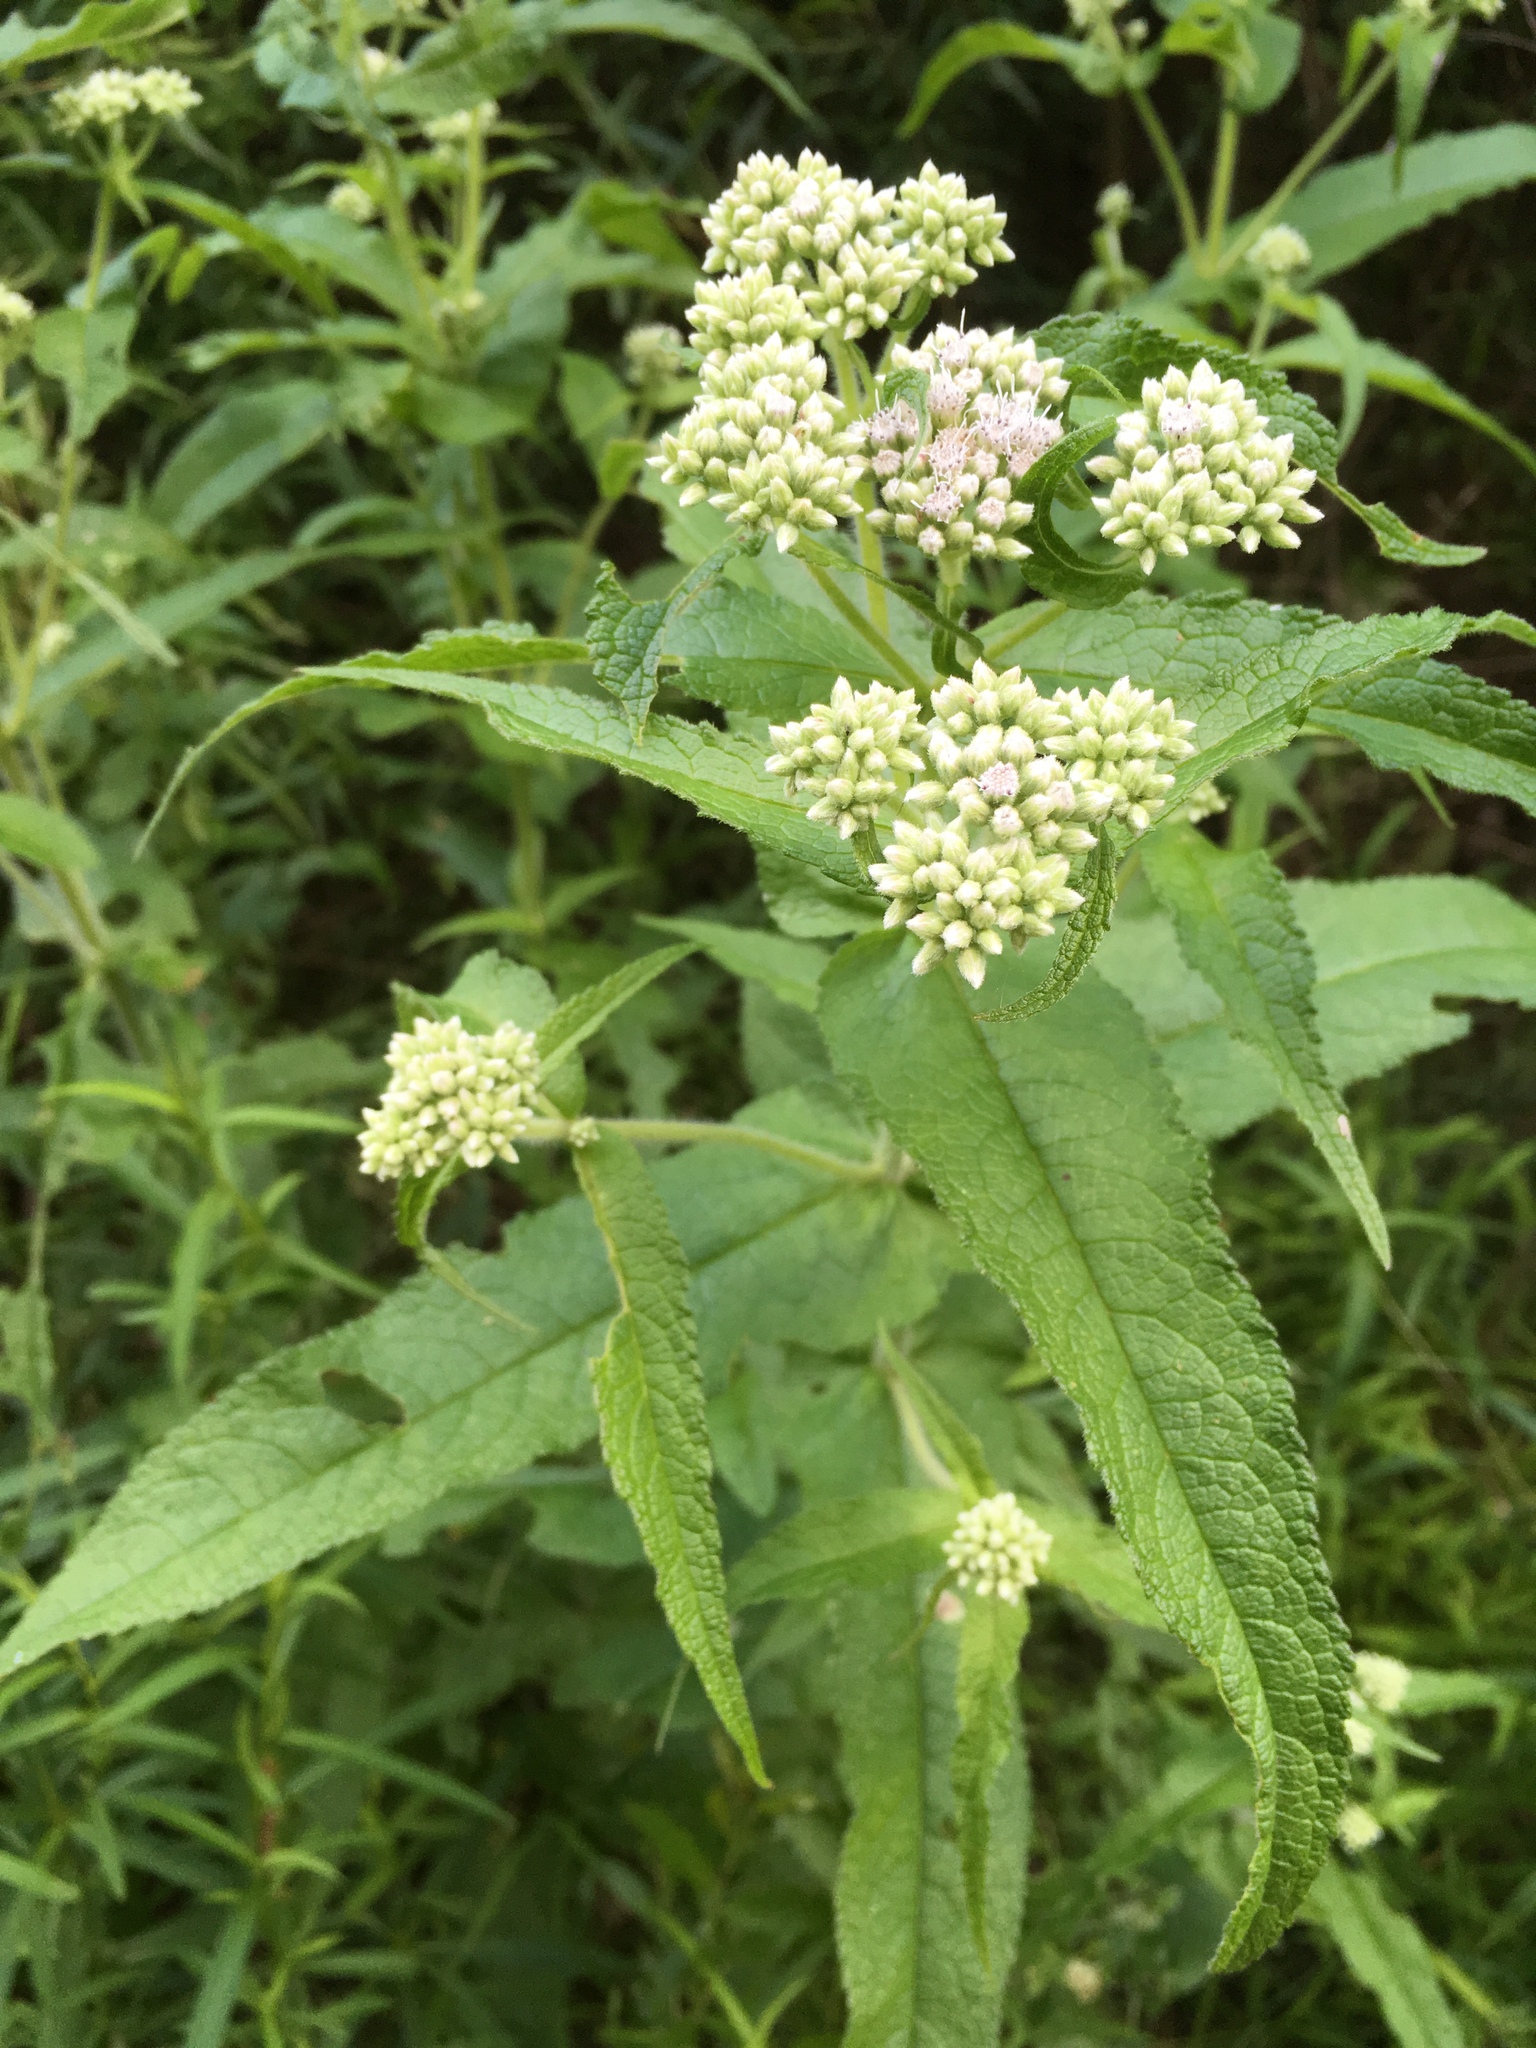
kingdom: Plantae
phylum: Tracheophyta
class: Magnoliopsida
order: Asterales
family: Asteraceae
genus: Eupatorium
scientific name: Eupatorium perfoliatum
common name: Boneset
